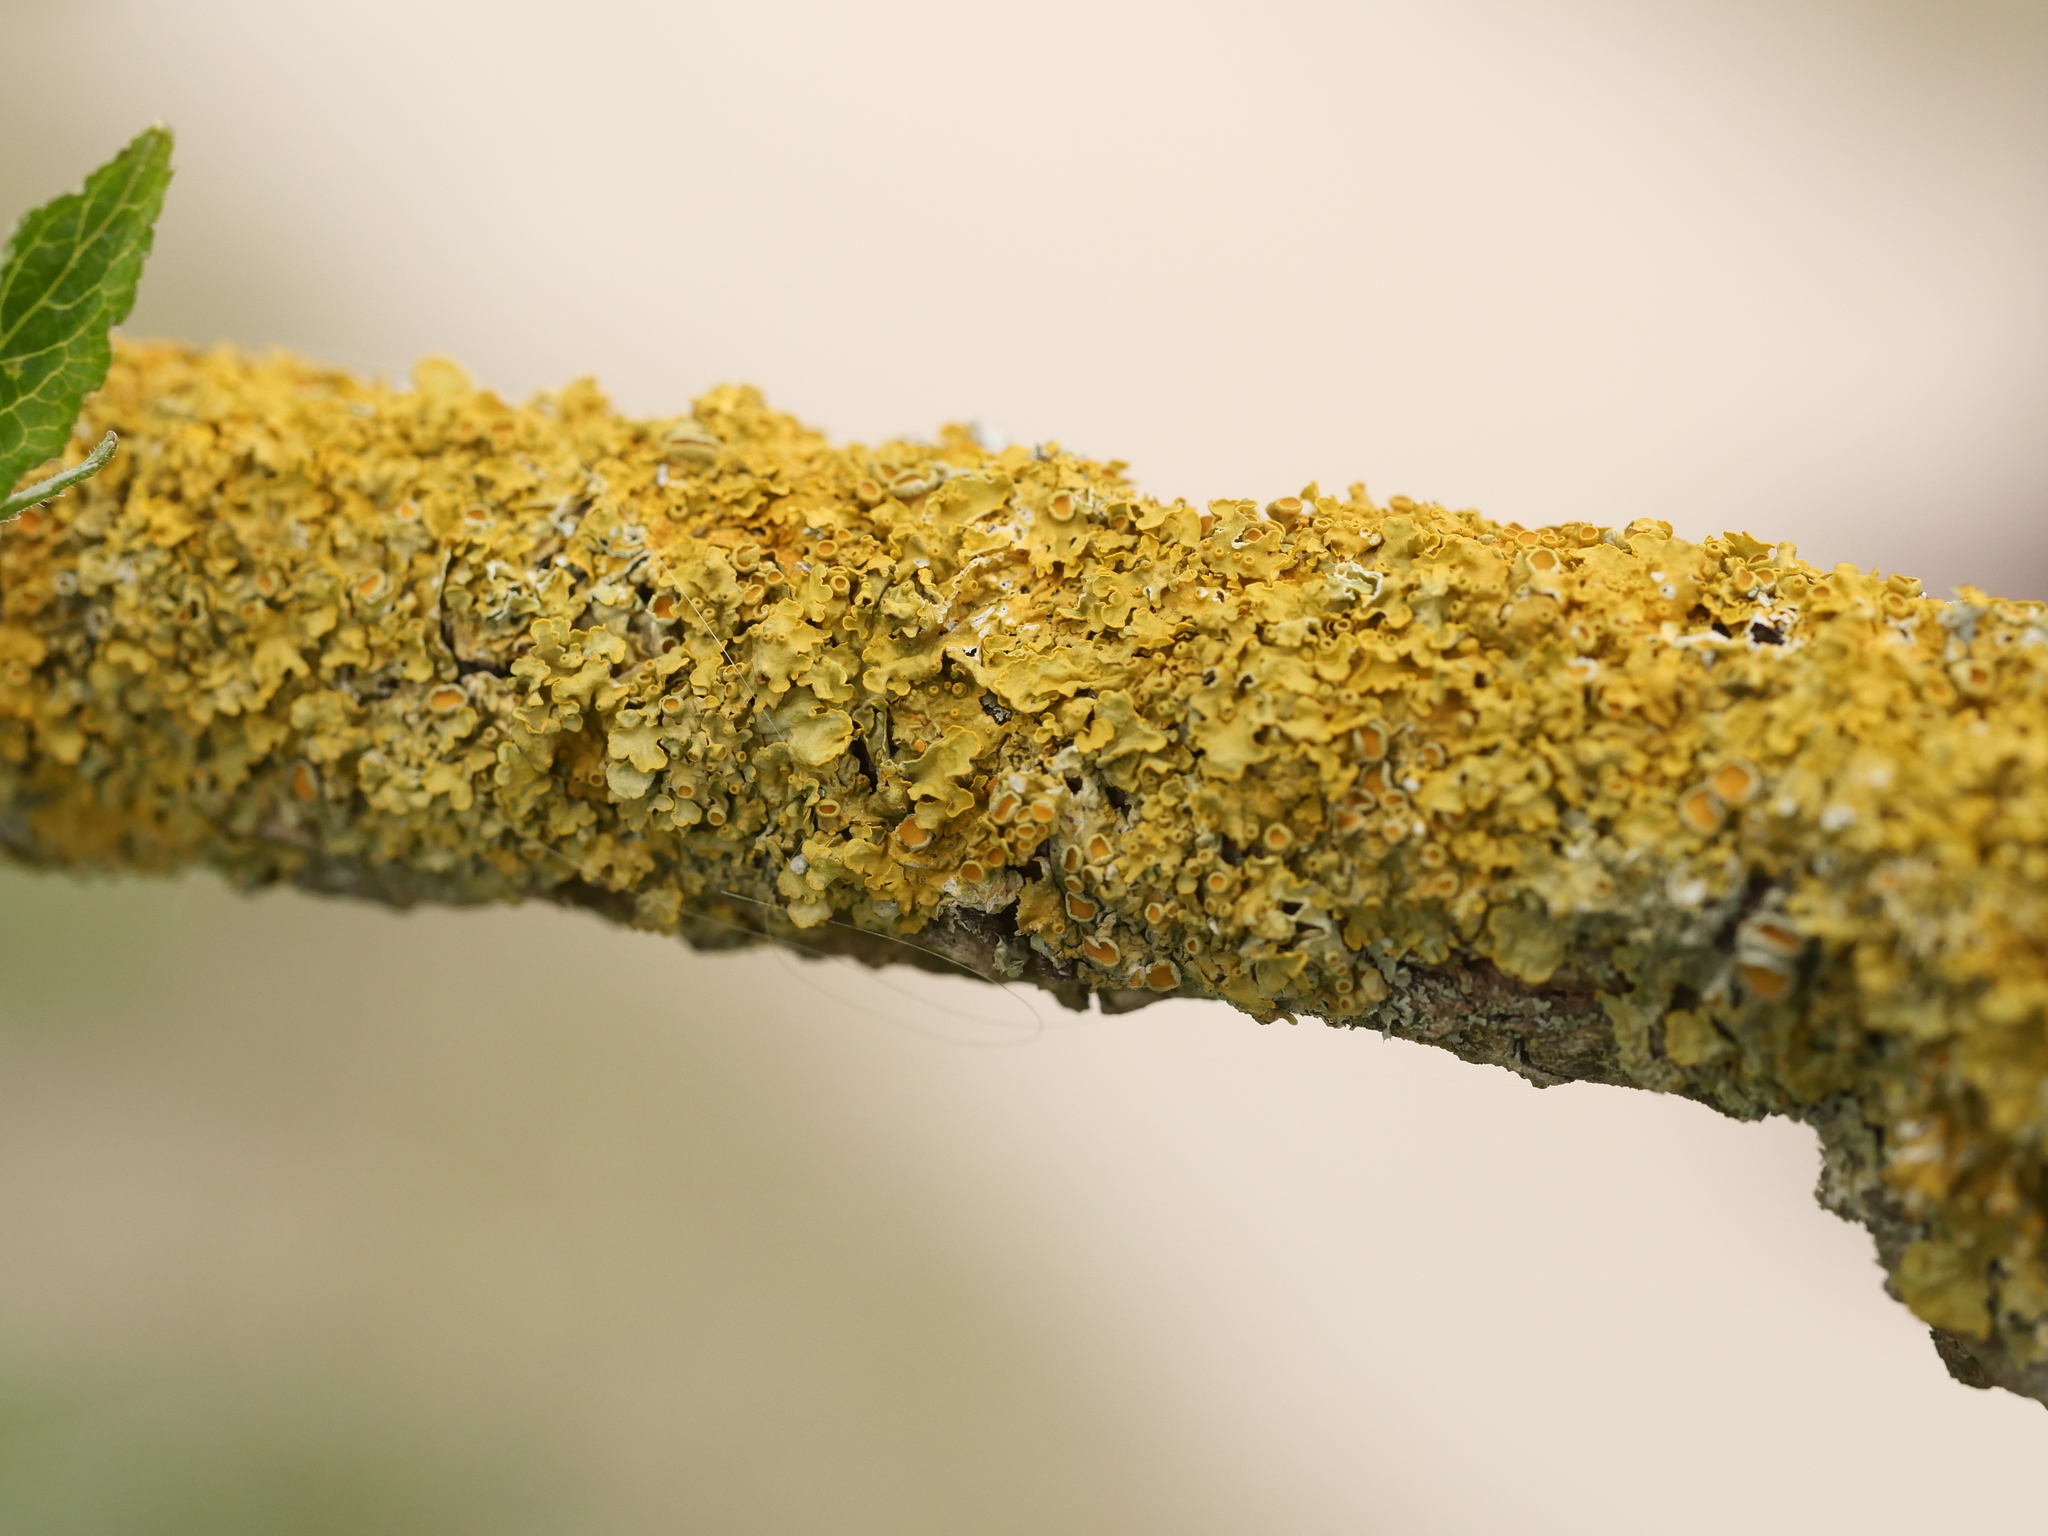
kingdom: Fungi
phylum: Ascomycota
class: Lecanoromycetes
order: Teloschistales
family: Teloschistaceae
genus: Xanthoria
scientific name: Xanthoria parietina
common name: Common orange lichen
